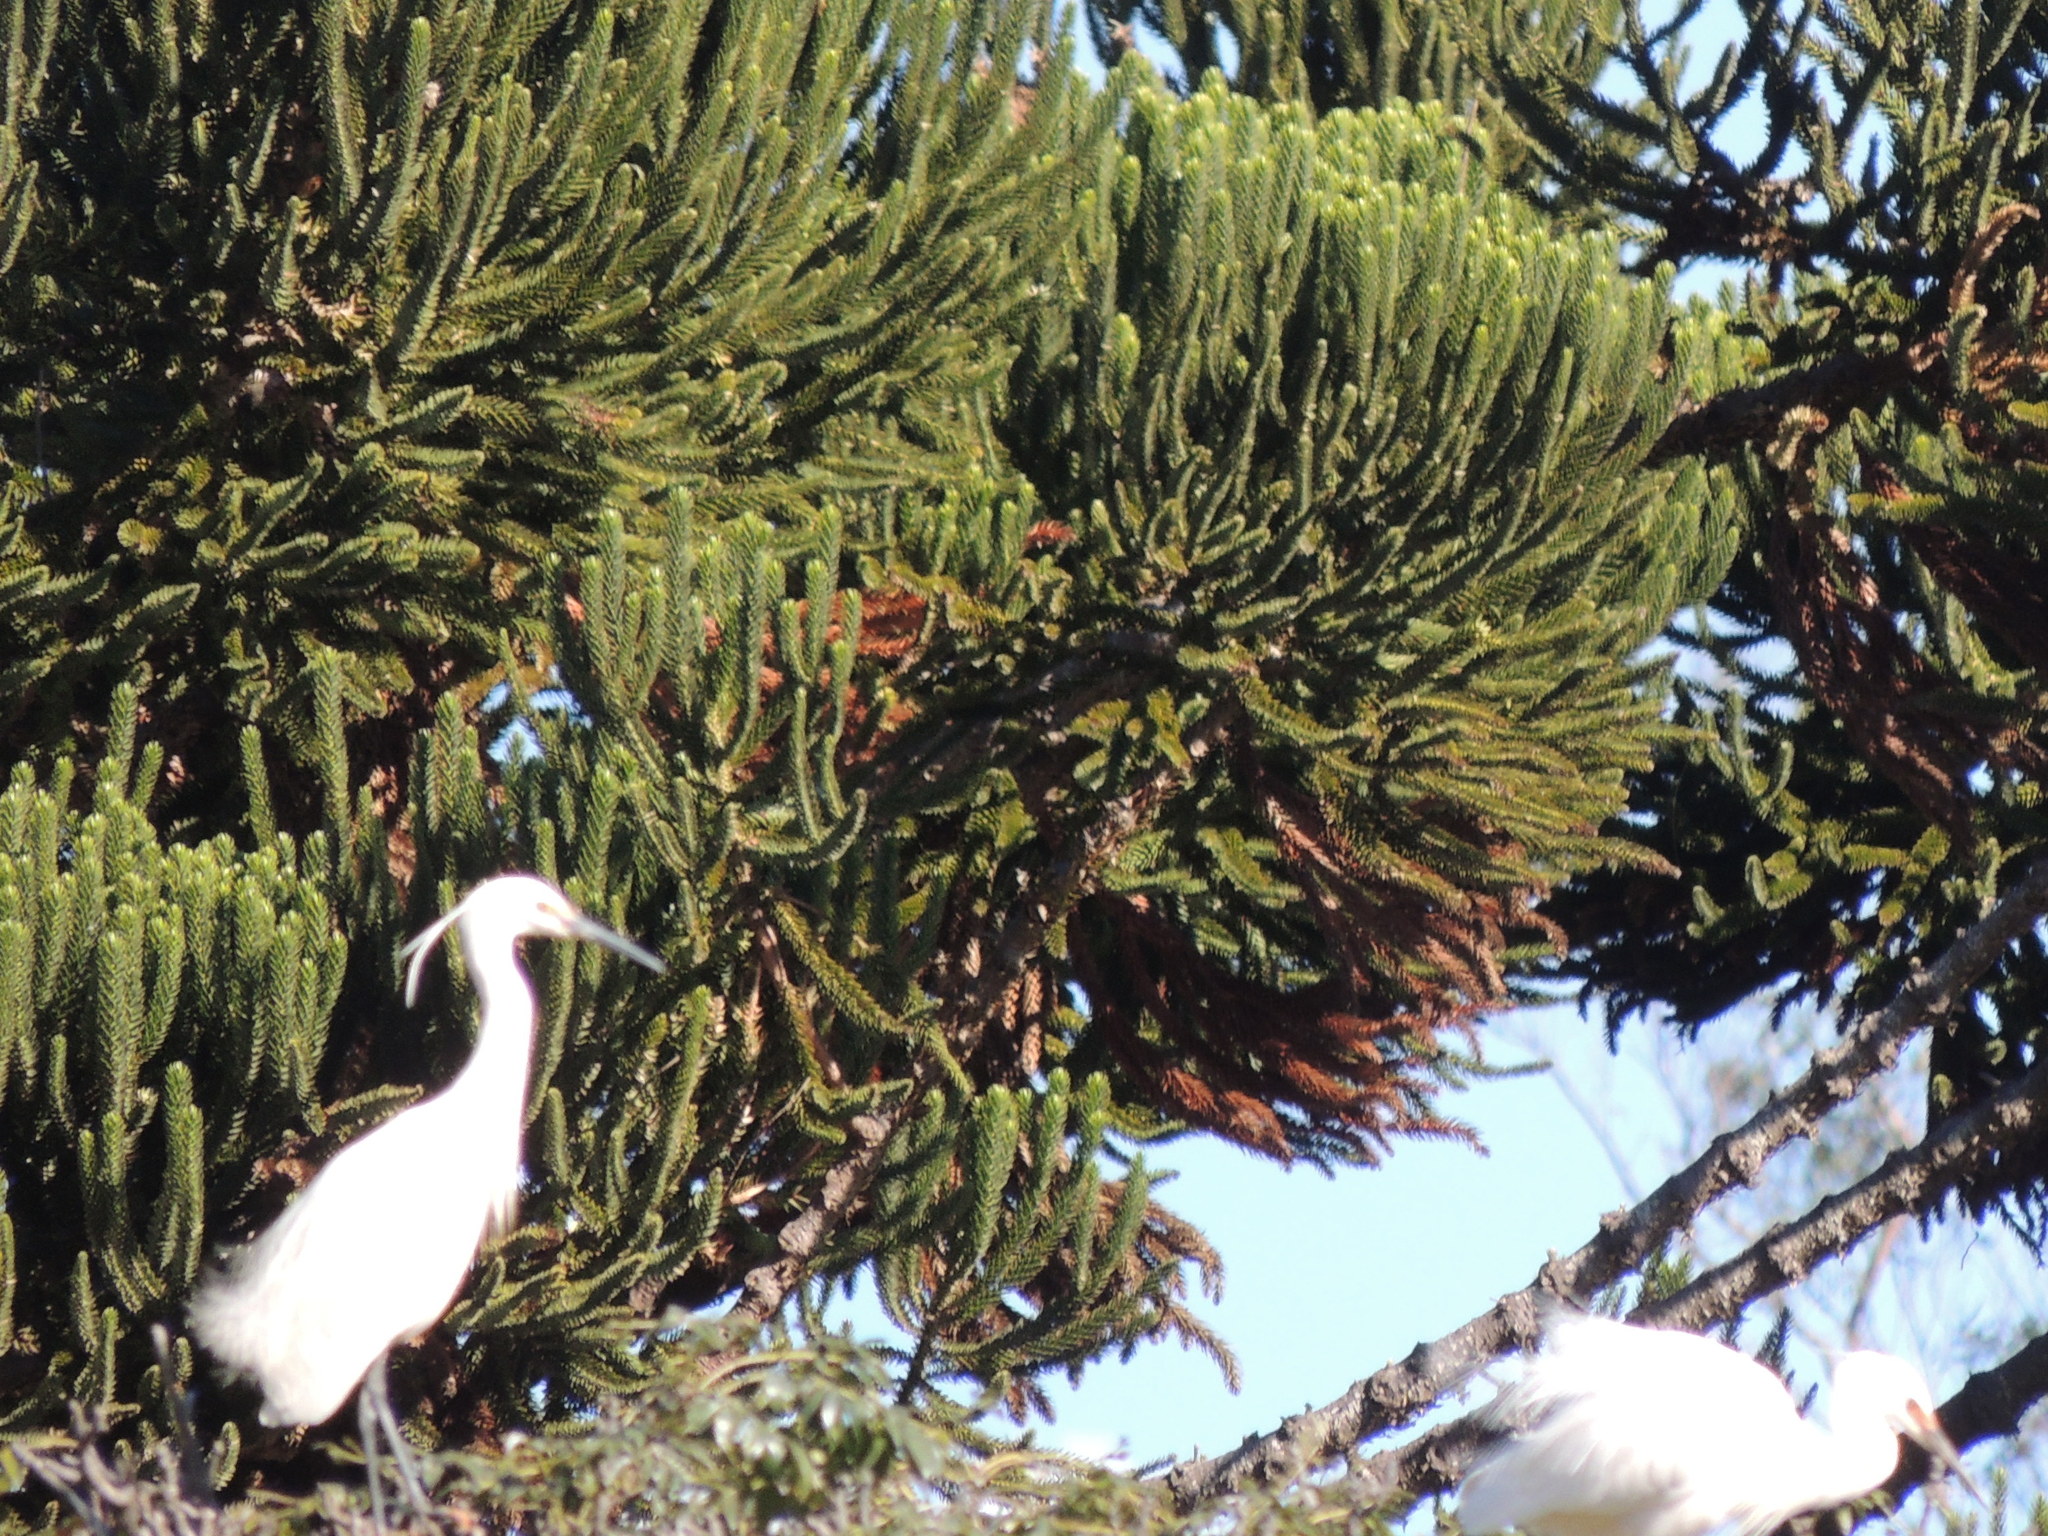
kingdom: Animalia
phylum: Chordata
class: Aves
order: Pelecaniformes
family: Ardeidae
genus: Egretta
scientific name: Egretta garzetta
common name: Little egret
